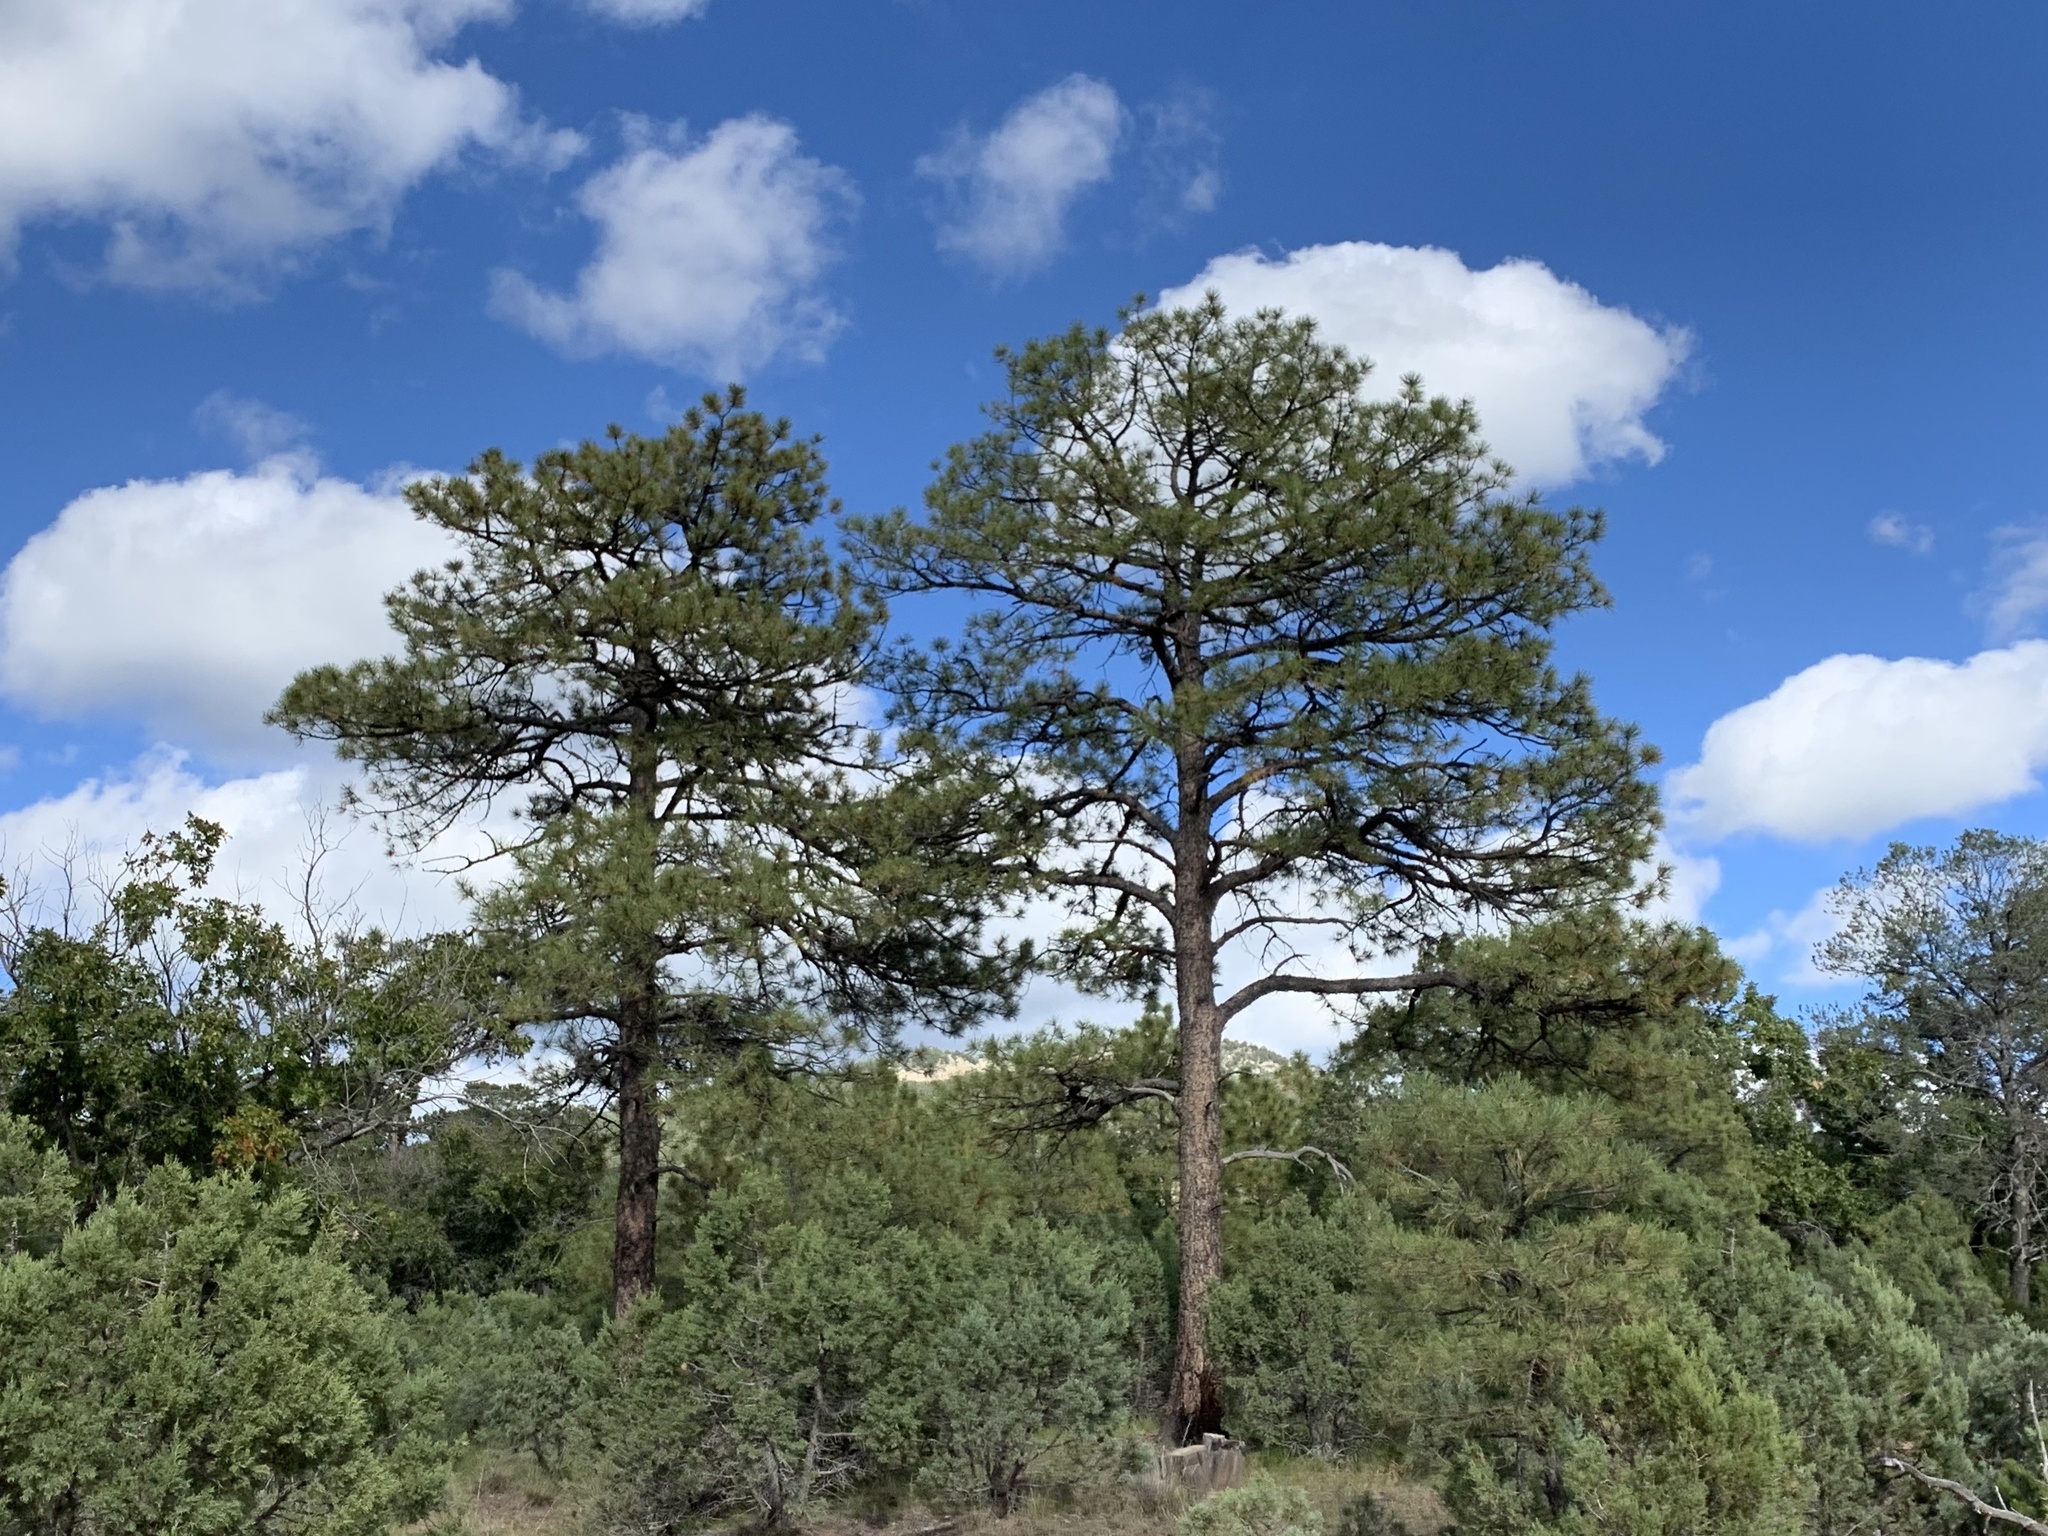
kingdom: Plantae
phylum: Tracheophyta
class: Pinopsida
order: Pinales
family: Pinaceae
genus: Pinus
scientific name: Pinus ponderosa
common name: Western yellow-pine
